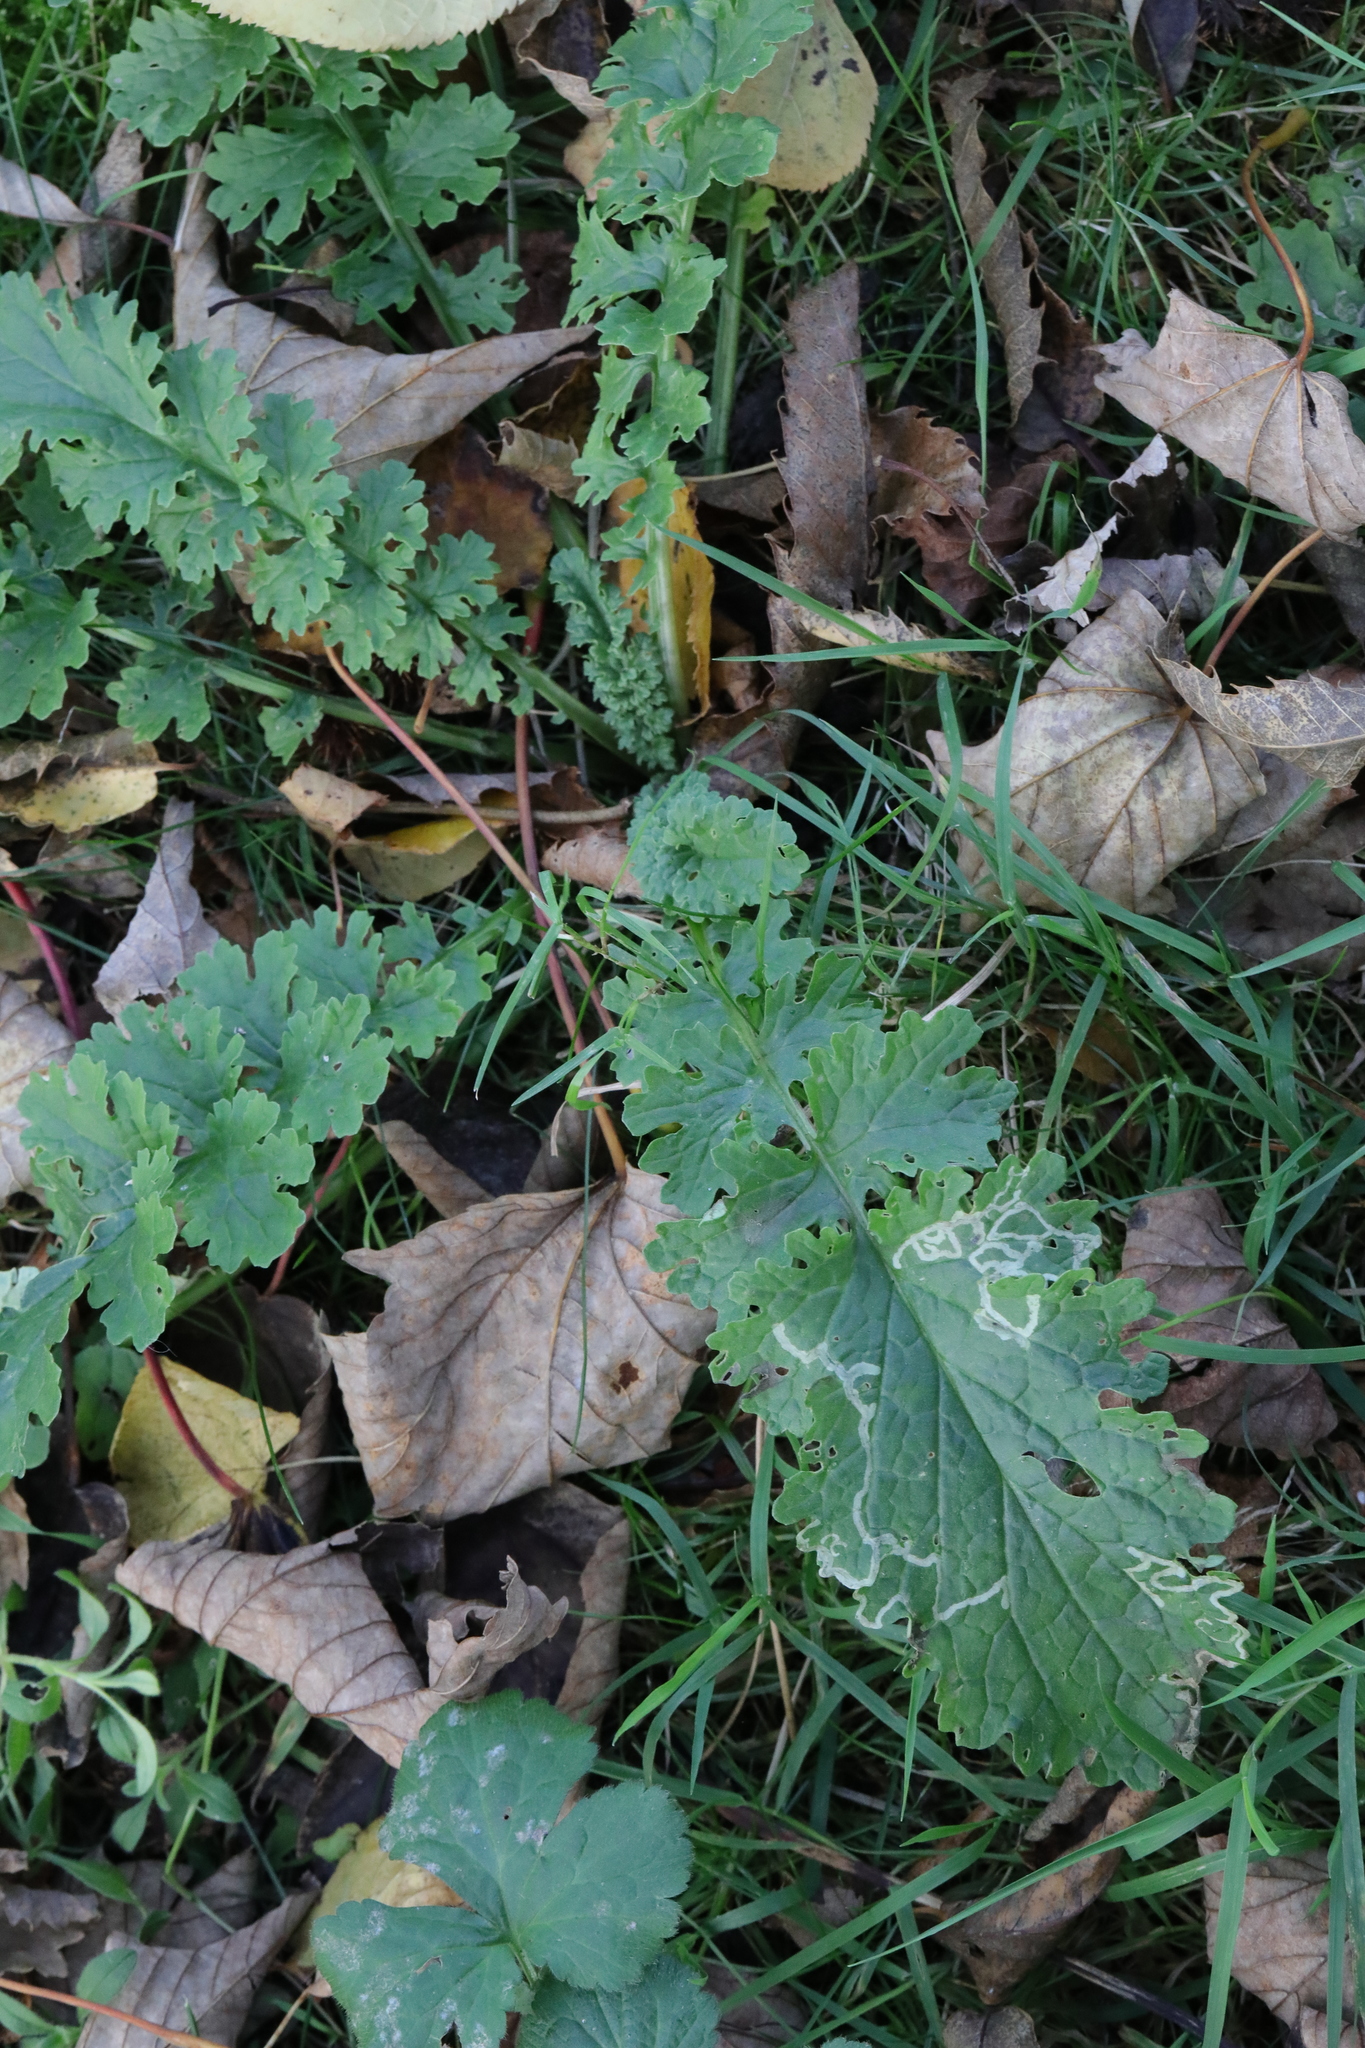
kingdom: Plantae
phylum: Tracheophyta
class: Magnoliopsida
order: Asterales
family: Asteraceae
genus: Jacobaea
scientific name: Jacobaea vulgaris
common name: Stinking willie
